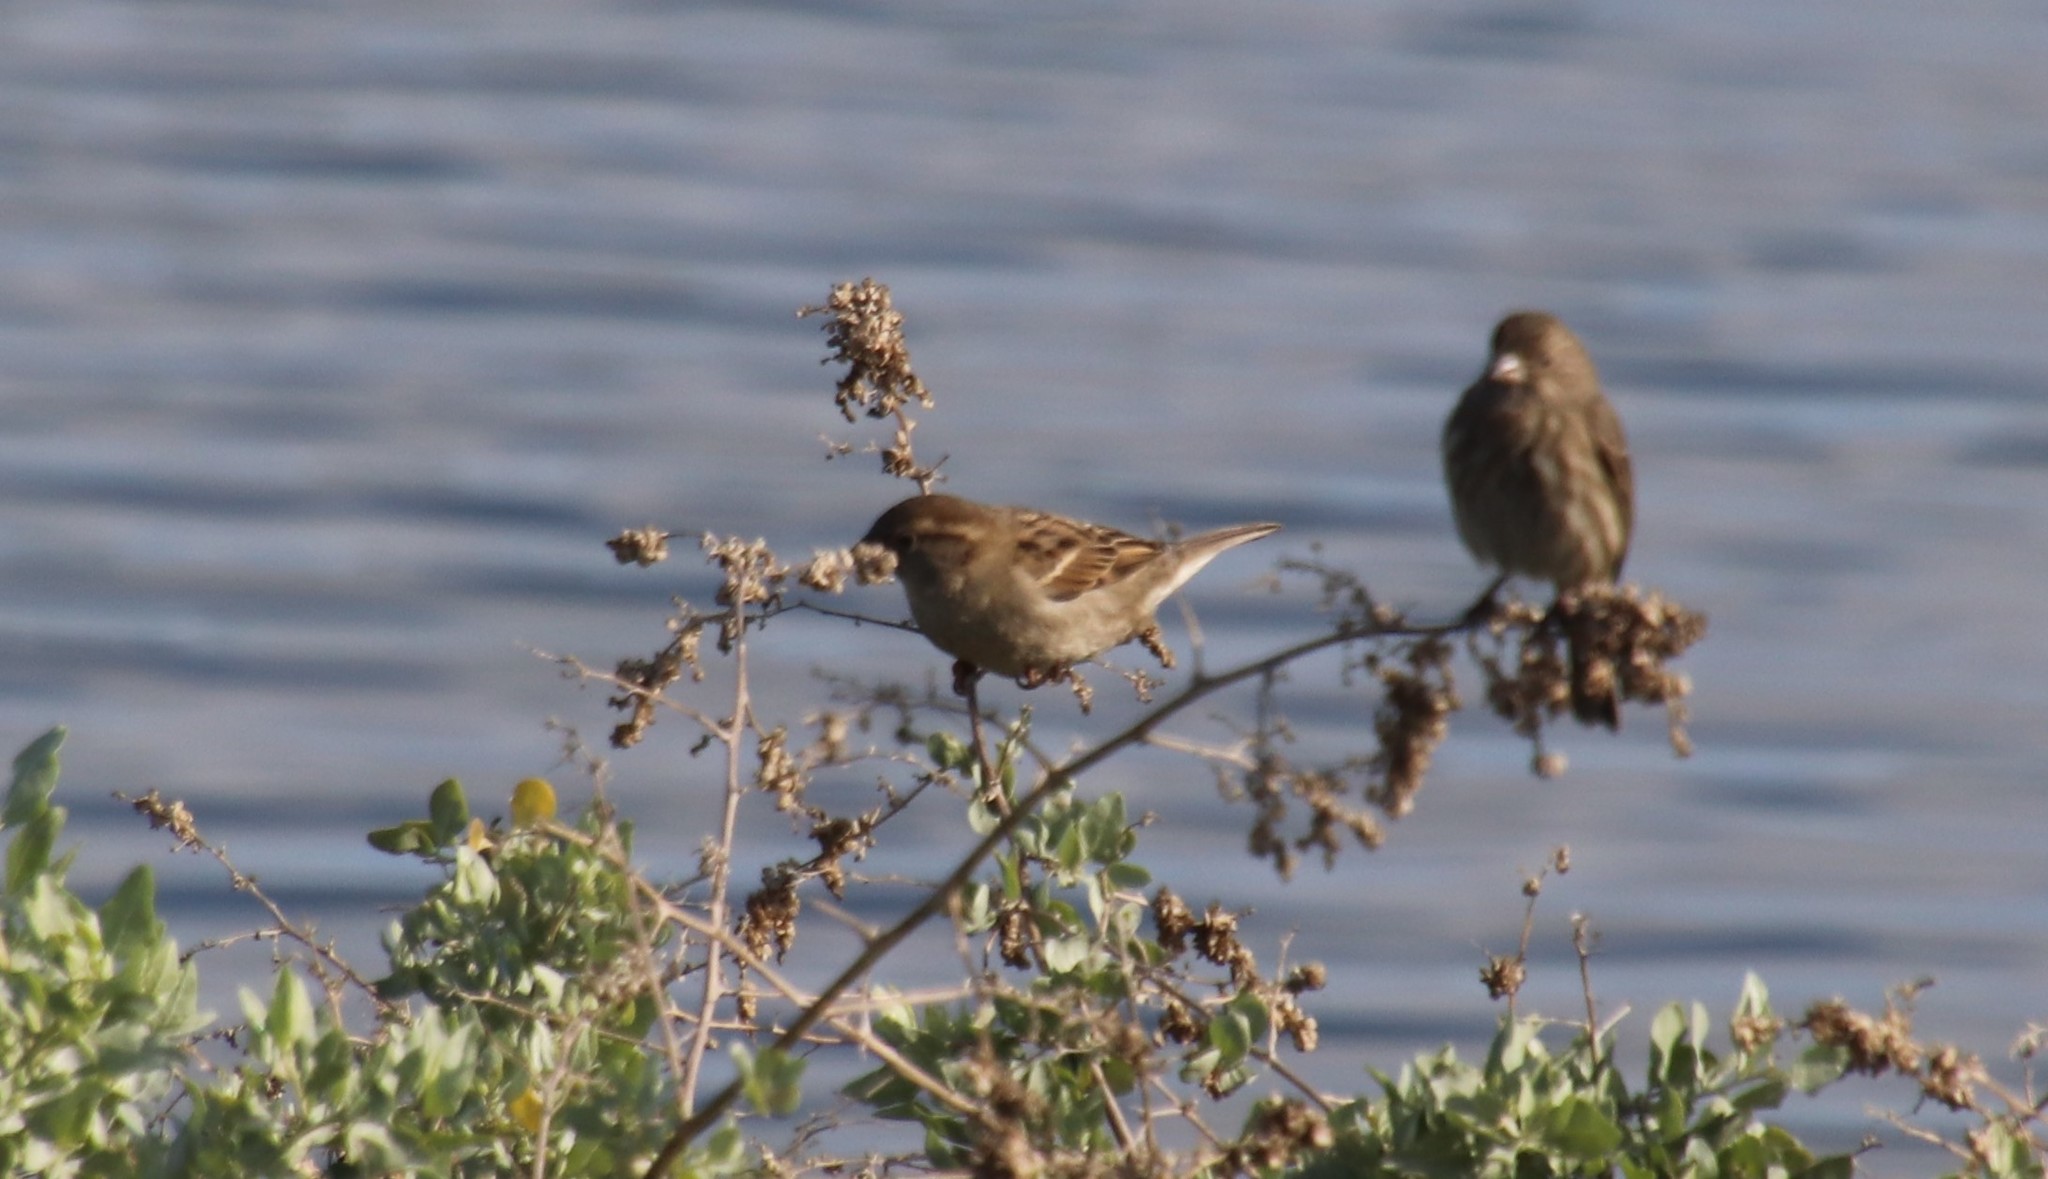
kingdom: Animalia
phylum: Chordata
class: Aves
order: Passeriformes
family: Passeridae
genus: Passer
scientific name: Passer domesticus
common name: House sparrow
